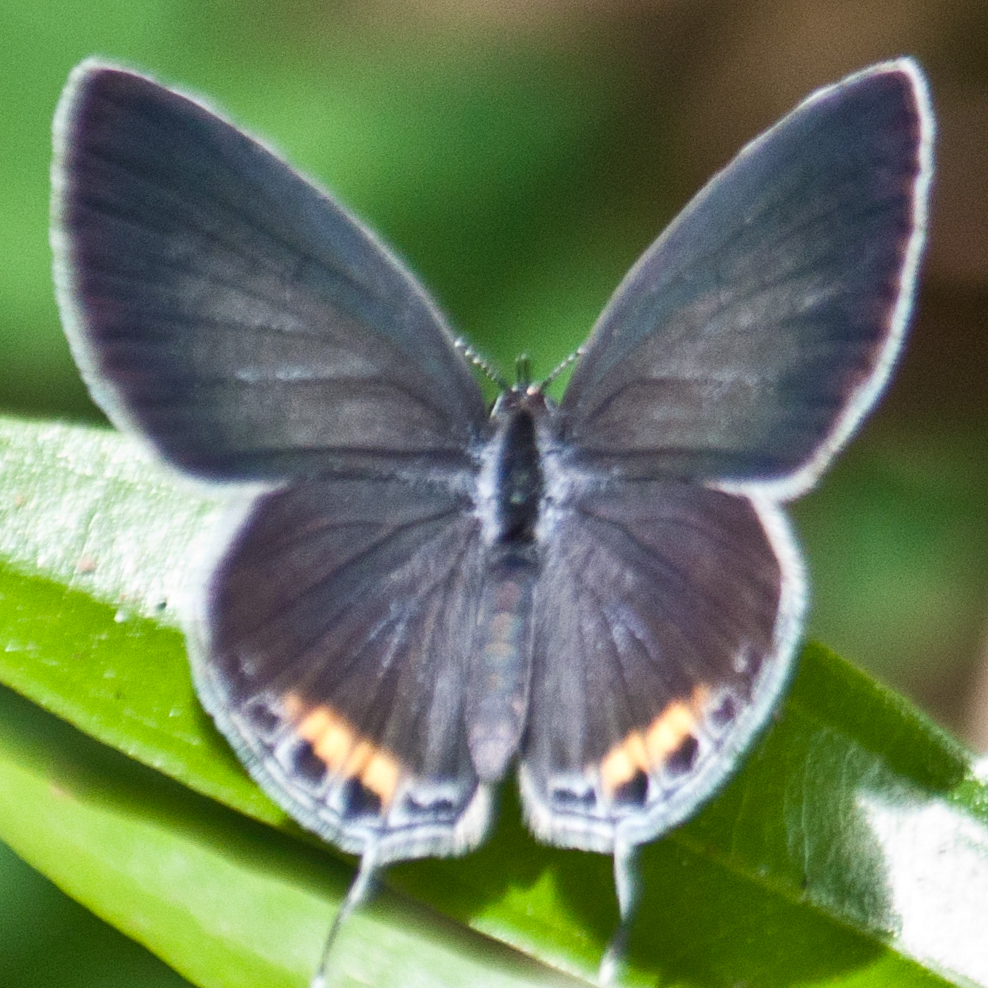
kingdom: Animalia
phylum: Arthropoda
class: Insecta
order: Lepidoptera
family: Lycaenidae
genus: Everes
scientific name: Everes lacturnus
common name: Orange-tipped pea-blue
